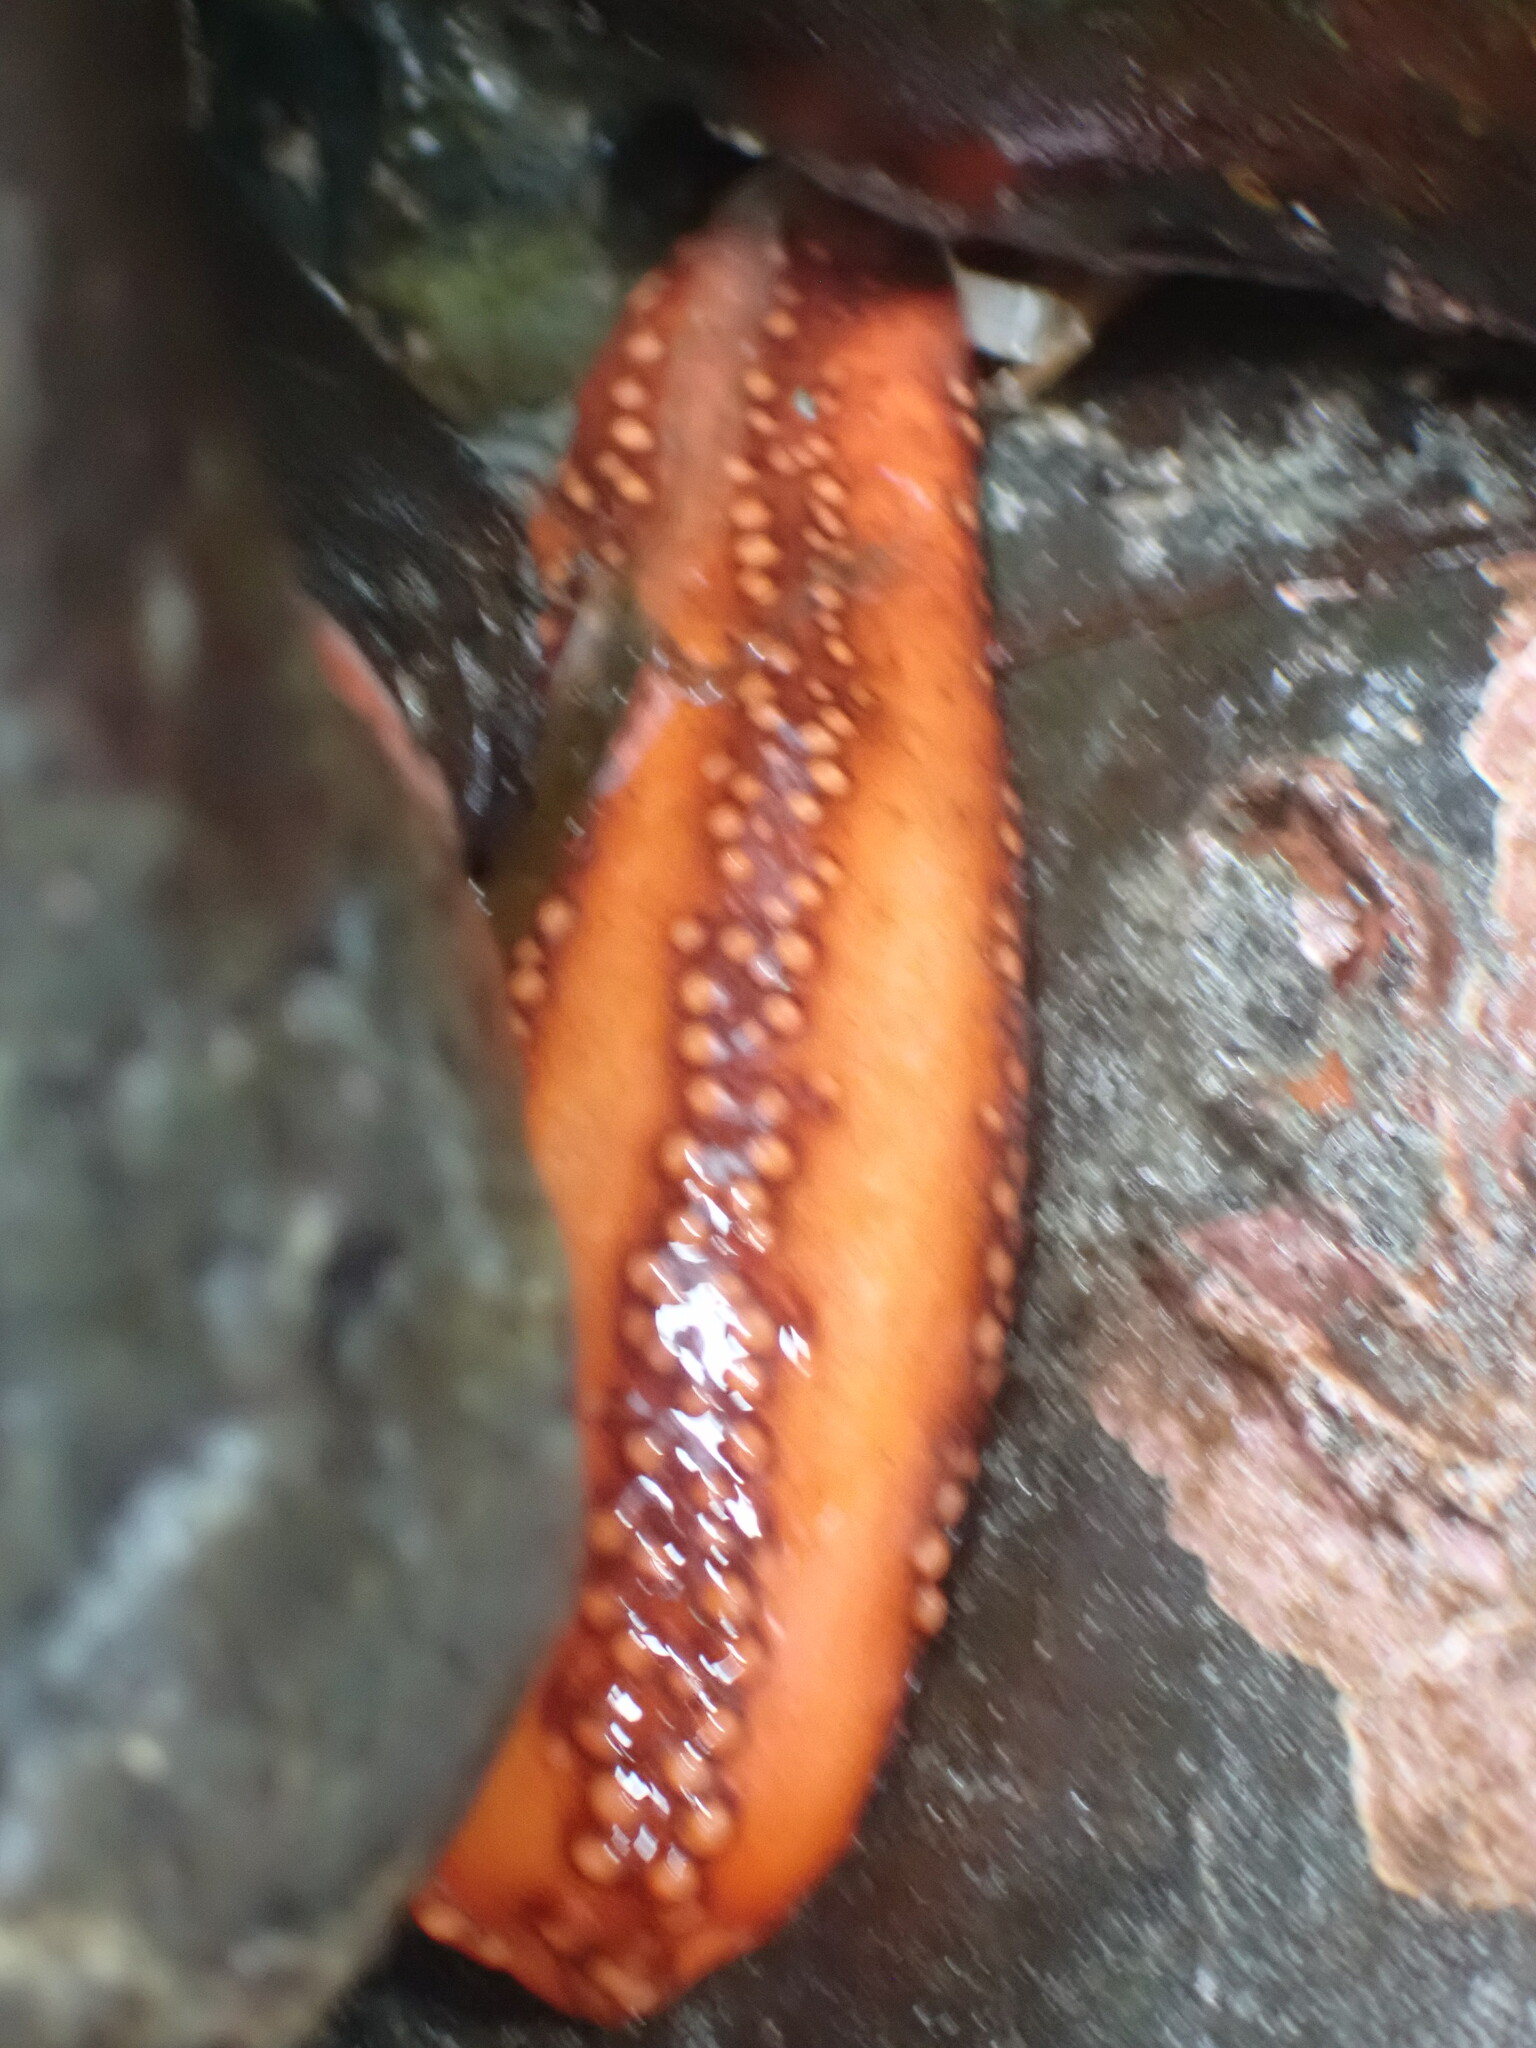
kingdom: Animalia
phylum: Echinodermata
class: Holothuroidea
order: Dendrochirotida
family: Cucumariidae
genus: Cucumaria
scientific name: Cucumaria miniata
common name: Orange sea cucumber
